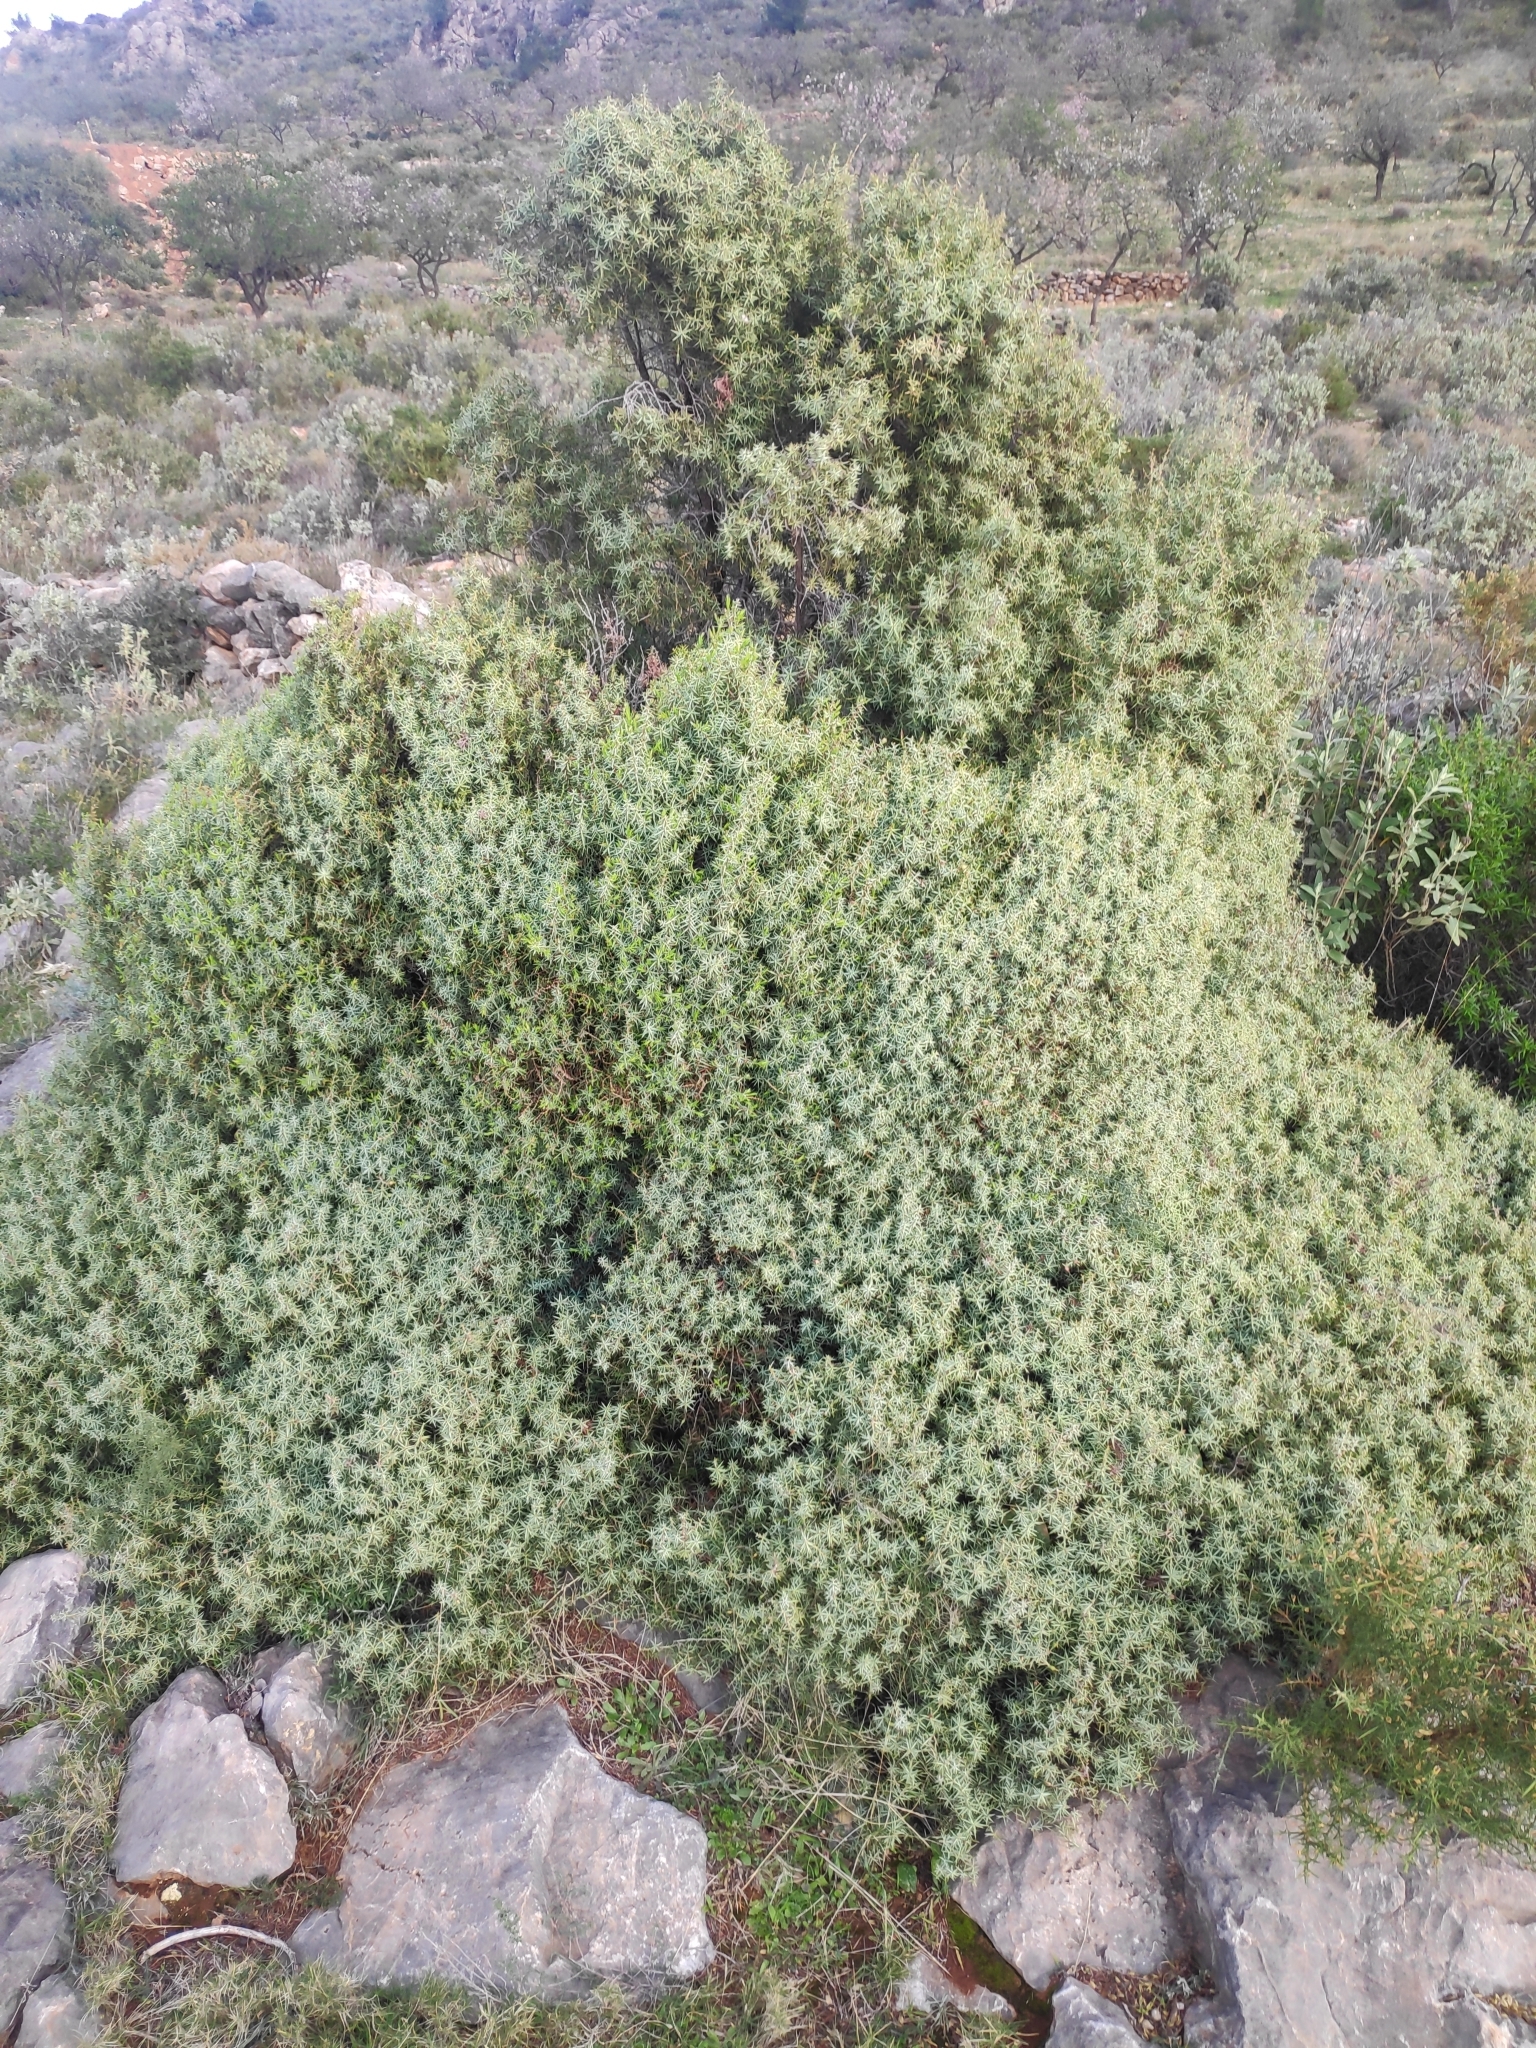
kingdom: Plantae
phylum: Tracheophyta
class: Pinopsida
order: Pinales
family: Cupressaceae
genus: Juniperus
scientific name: Juniperus oxycedrus
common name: Prickly juniper
